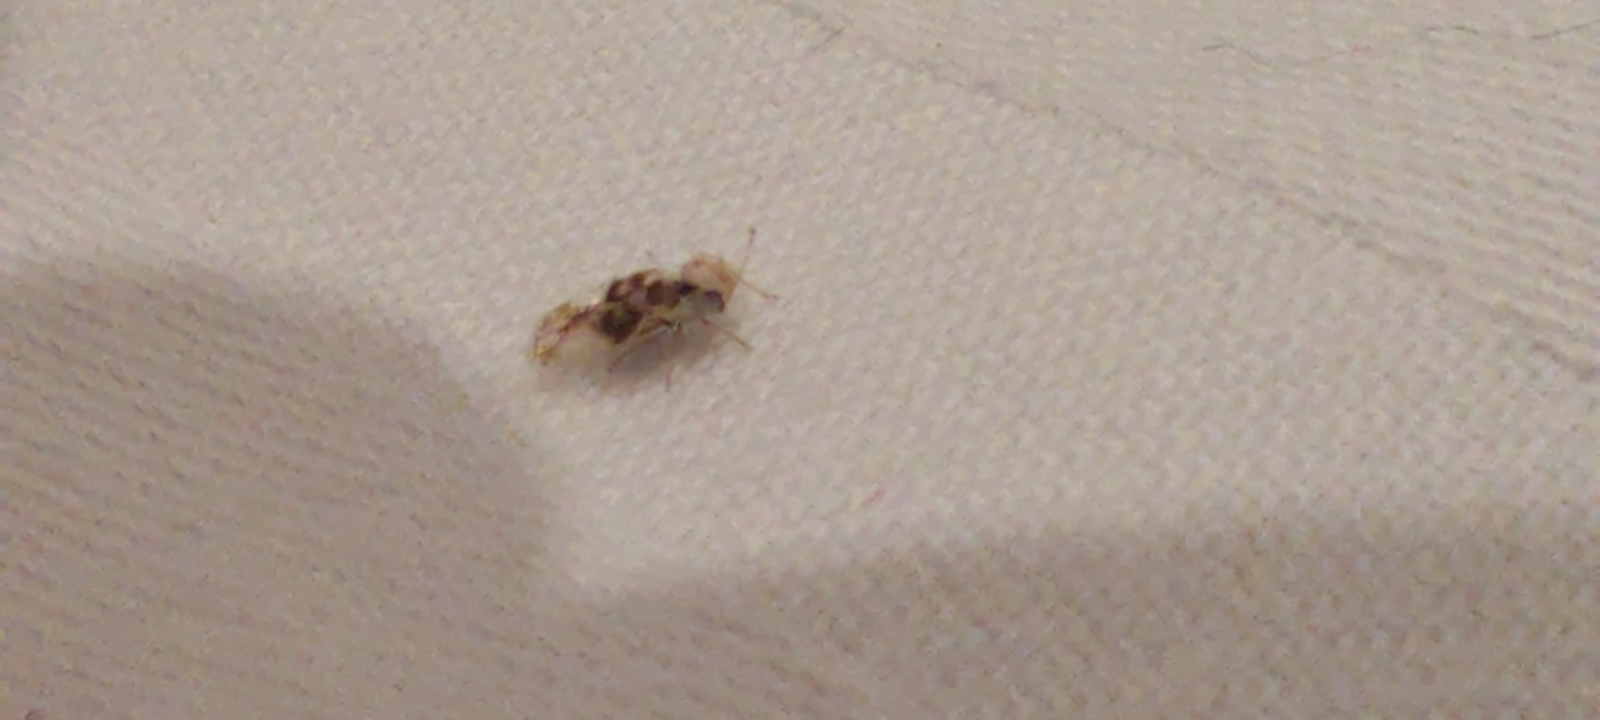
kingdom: Animalia
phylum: Arthropoda
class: Insecta
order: Hemiptera
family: Tingidae
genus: Corythucha
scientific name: Corythucha arcuata
